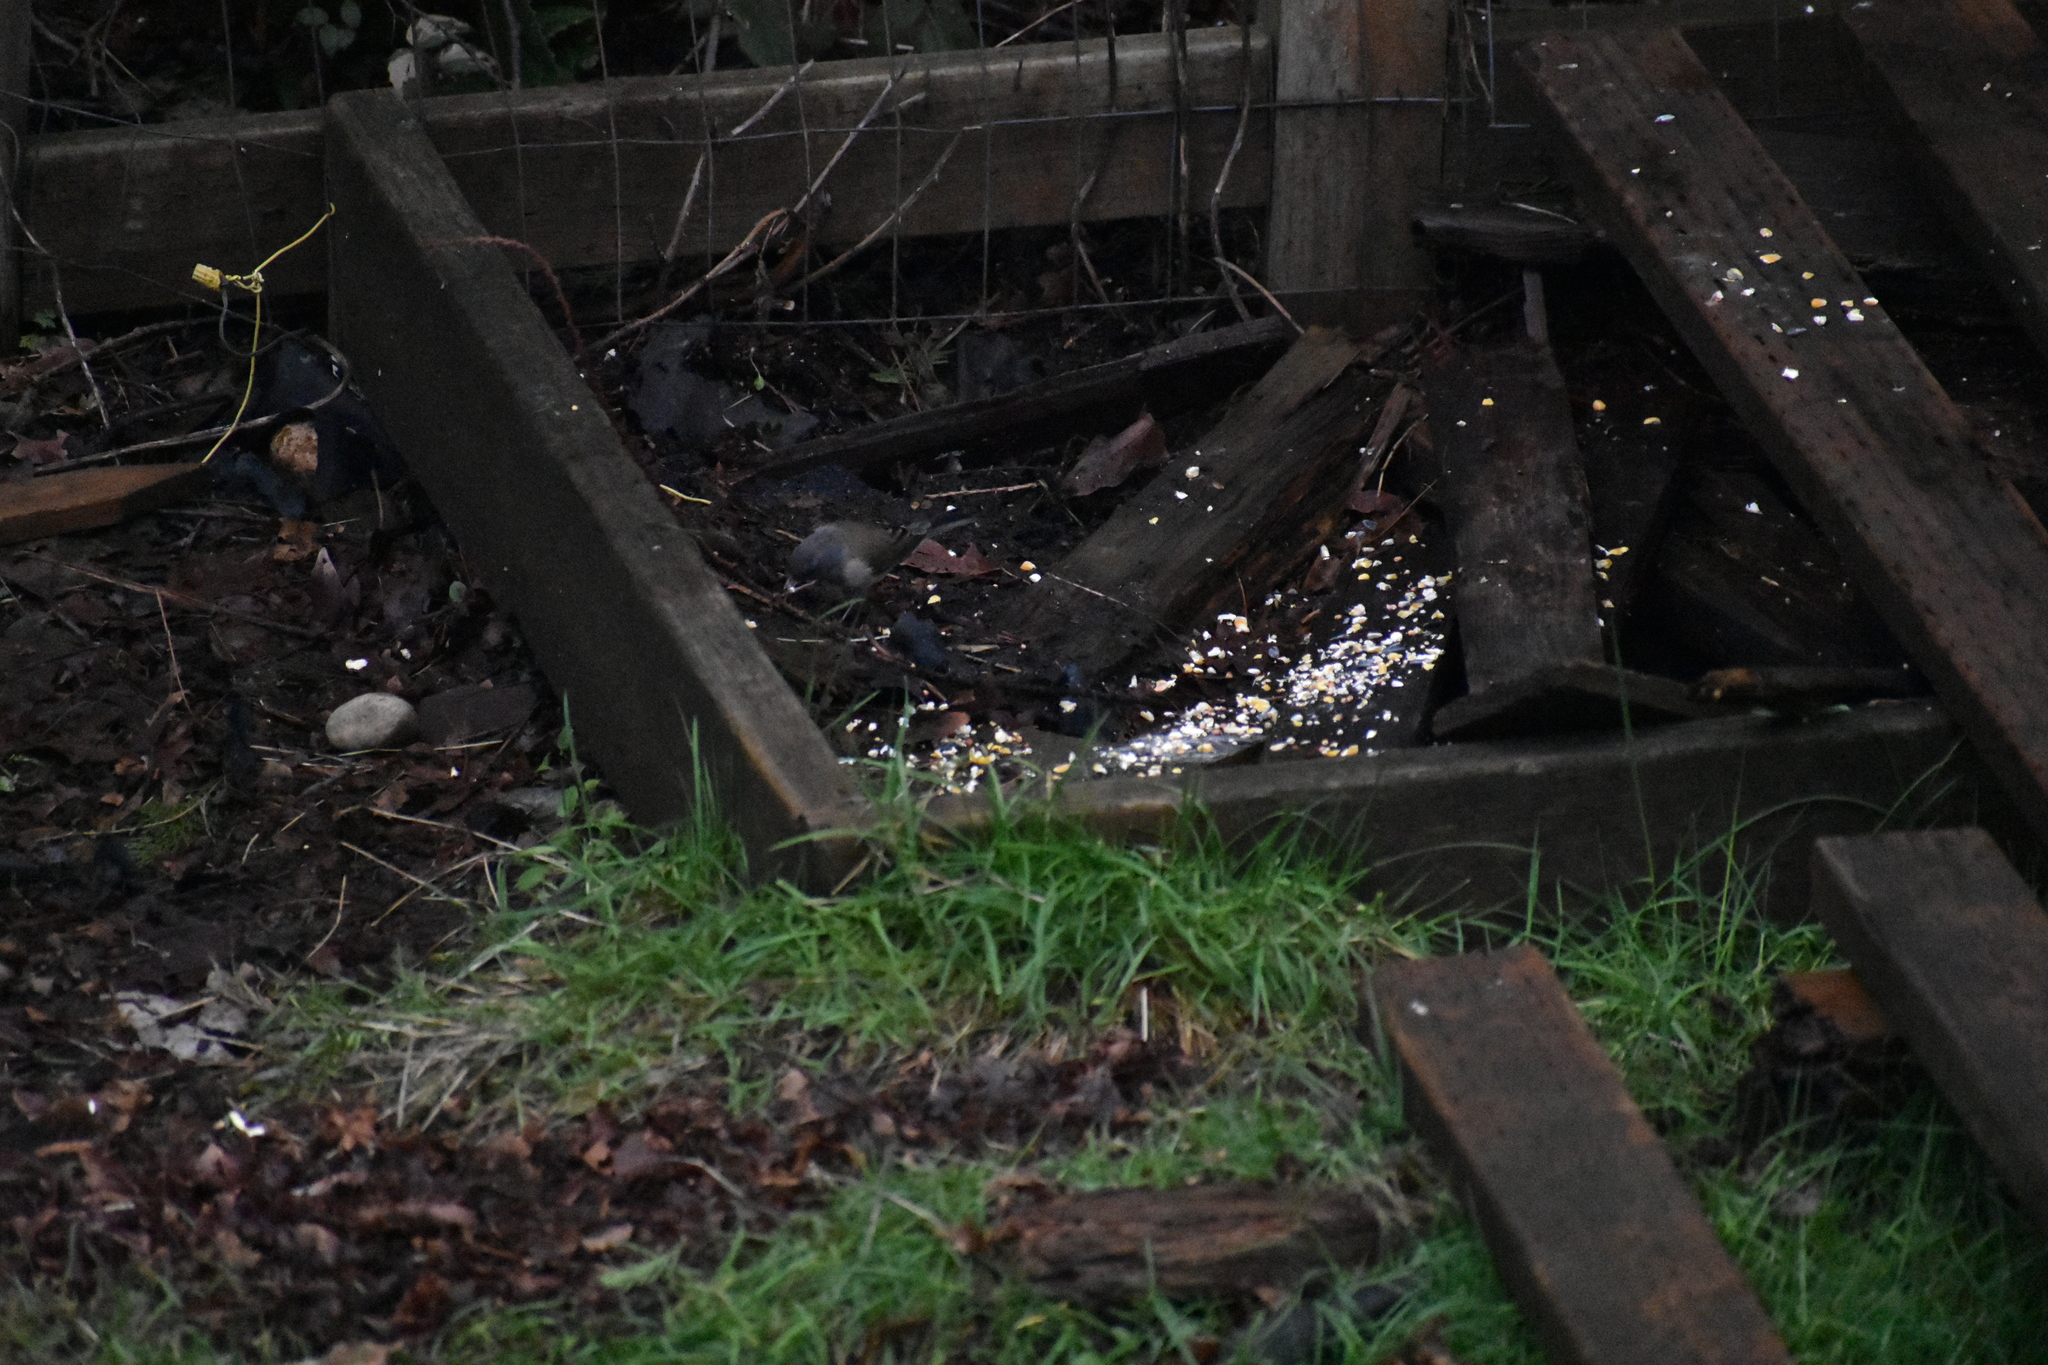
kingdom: Animalia
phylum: Chordata
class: Aves
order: Passeriformes
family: Passerellidae
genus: Junco
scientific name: Junco hyemalis
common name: Dark-eyed junco
